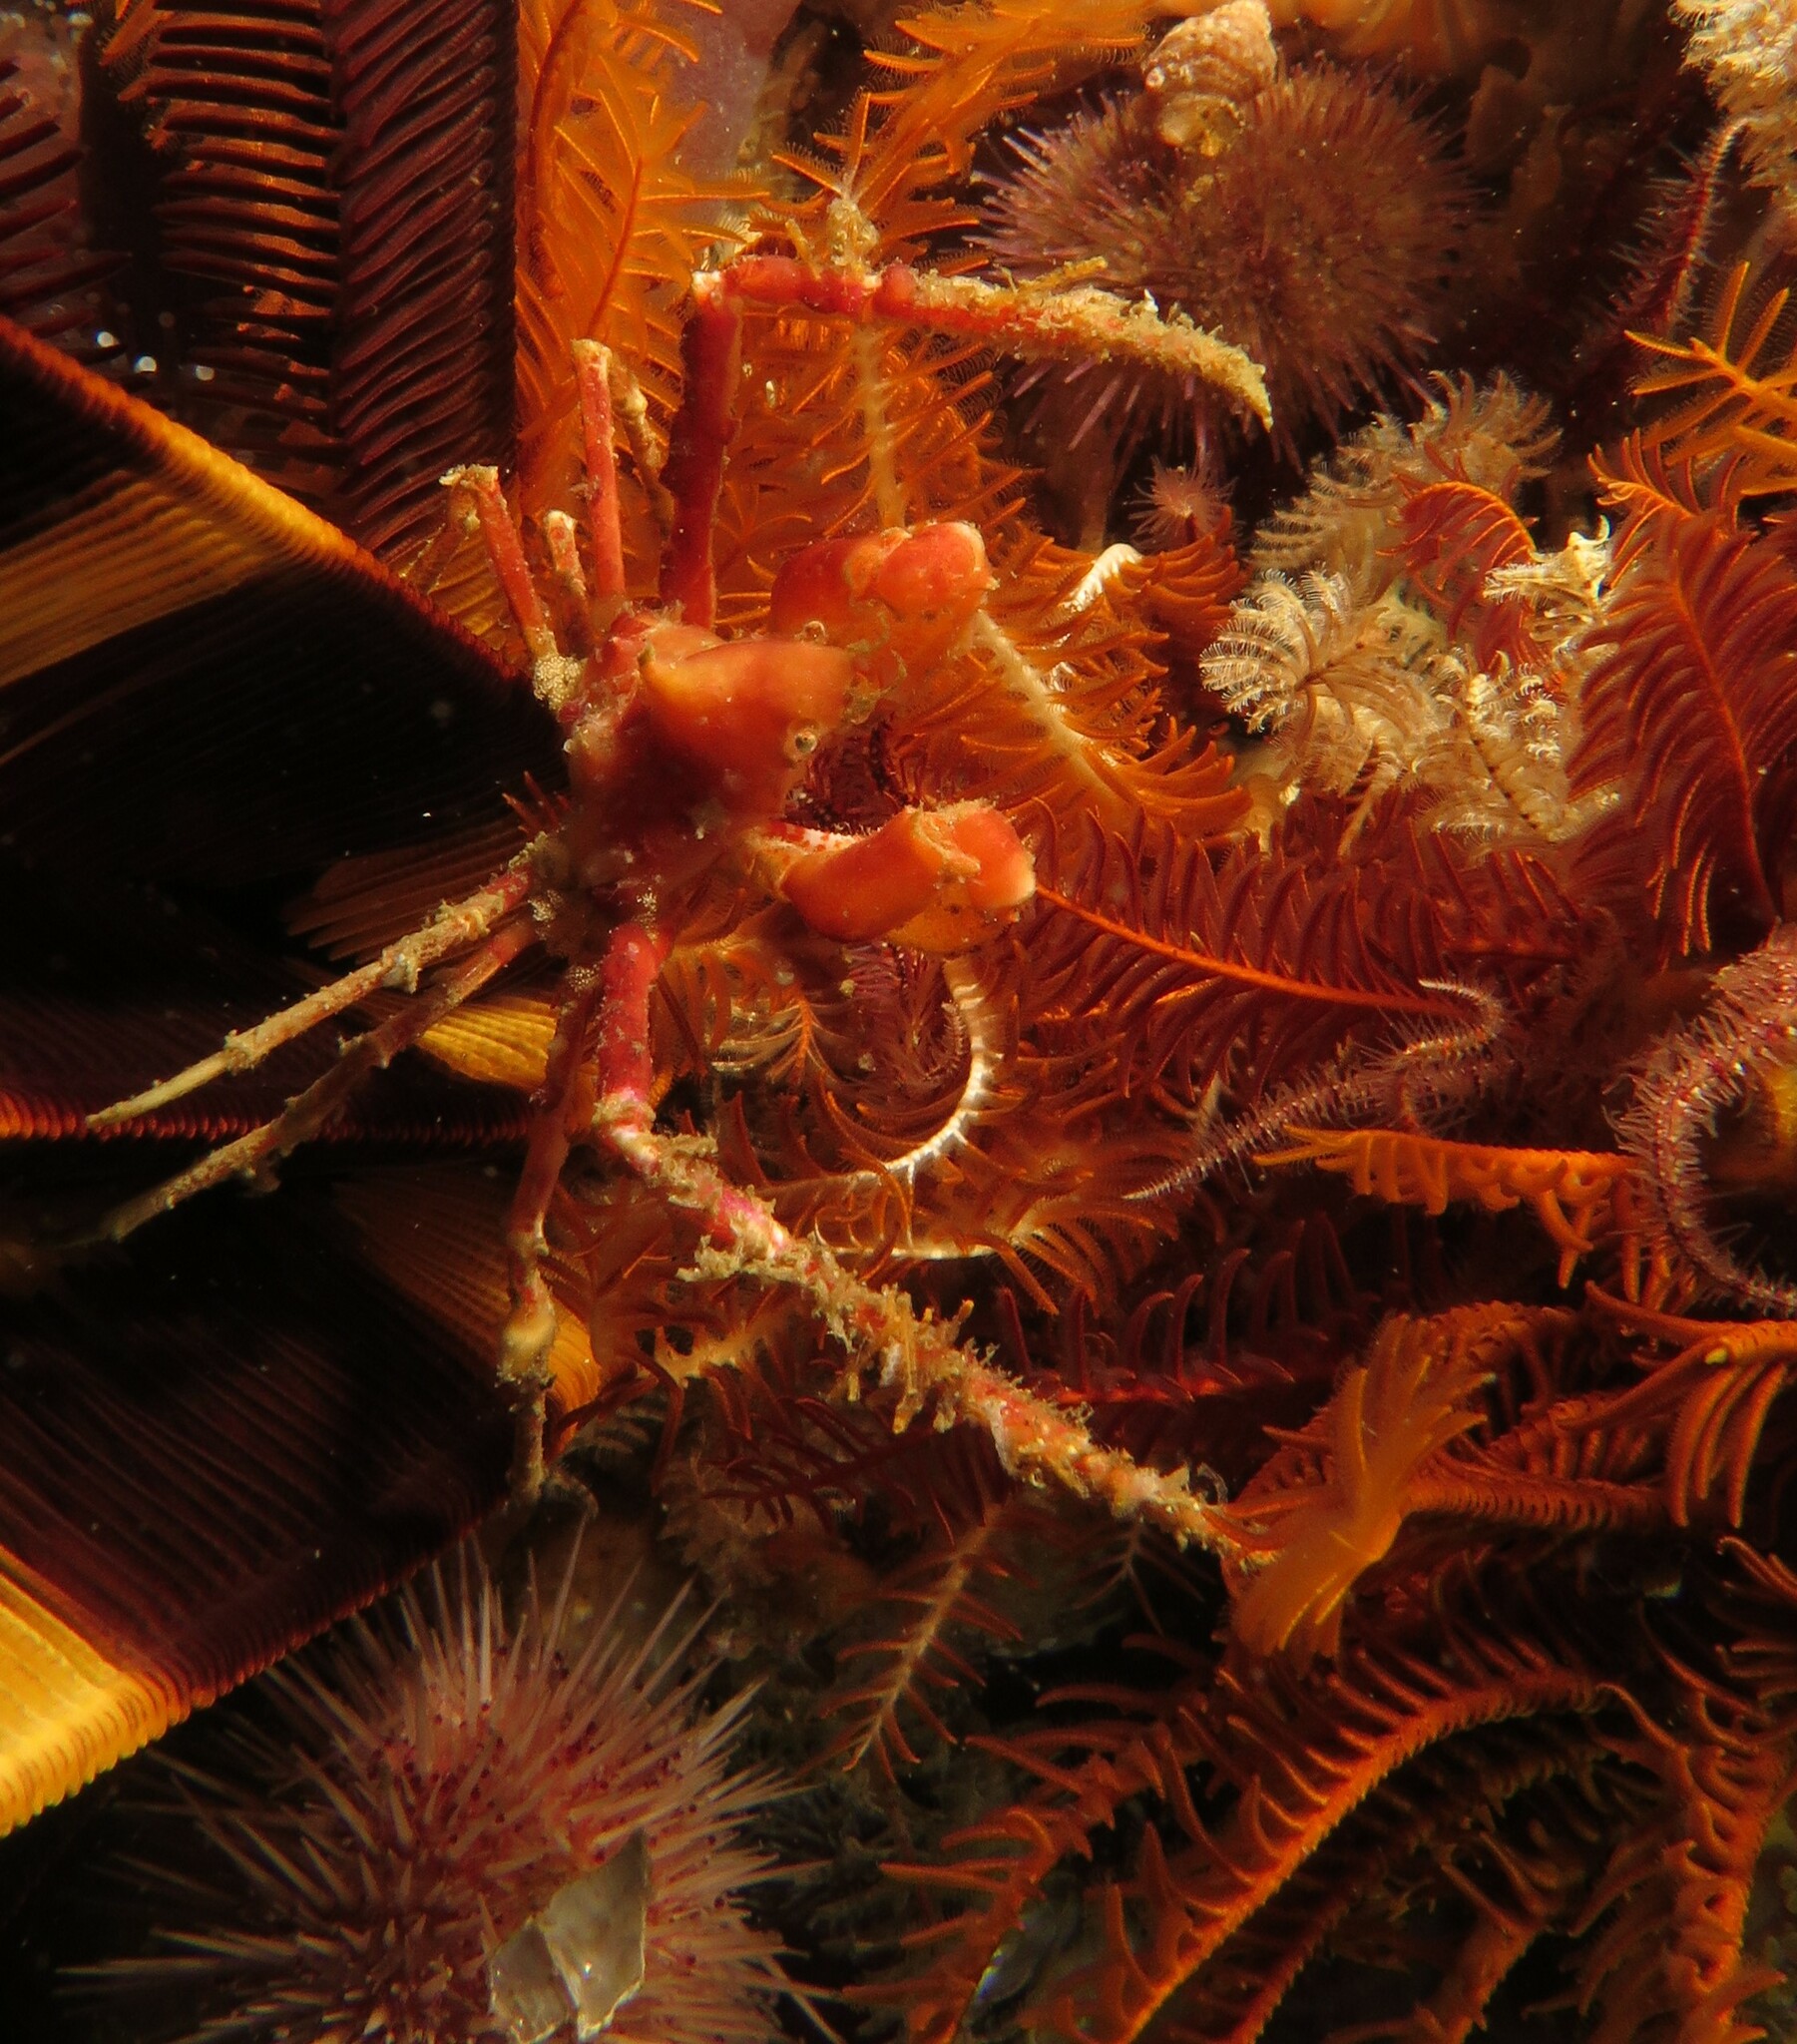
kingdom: Animalia
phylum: Arthropoda
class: Malacostraca
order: Decapoda
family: Inachidae
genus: Achaeopsis
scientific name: Achaeopsis spinulosa
